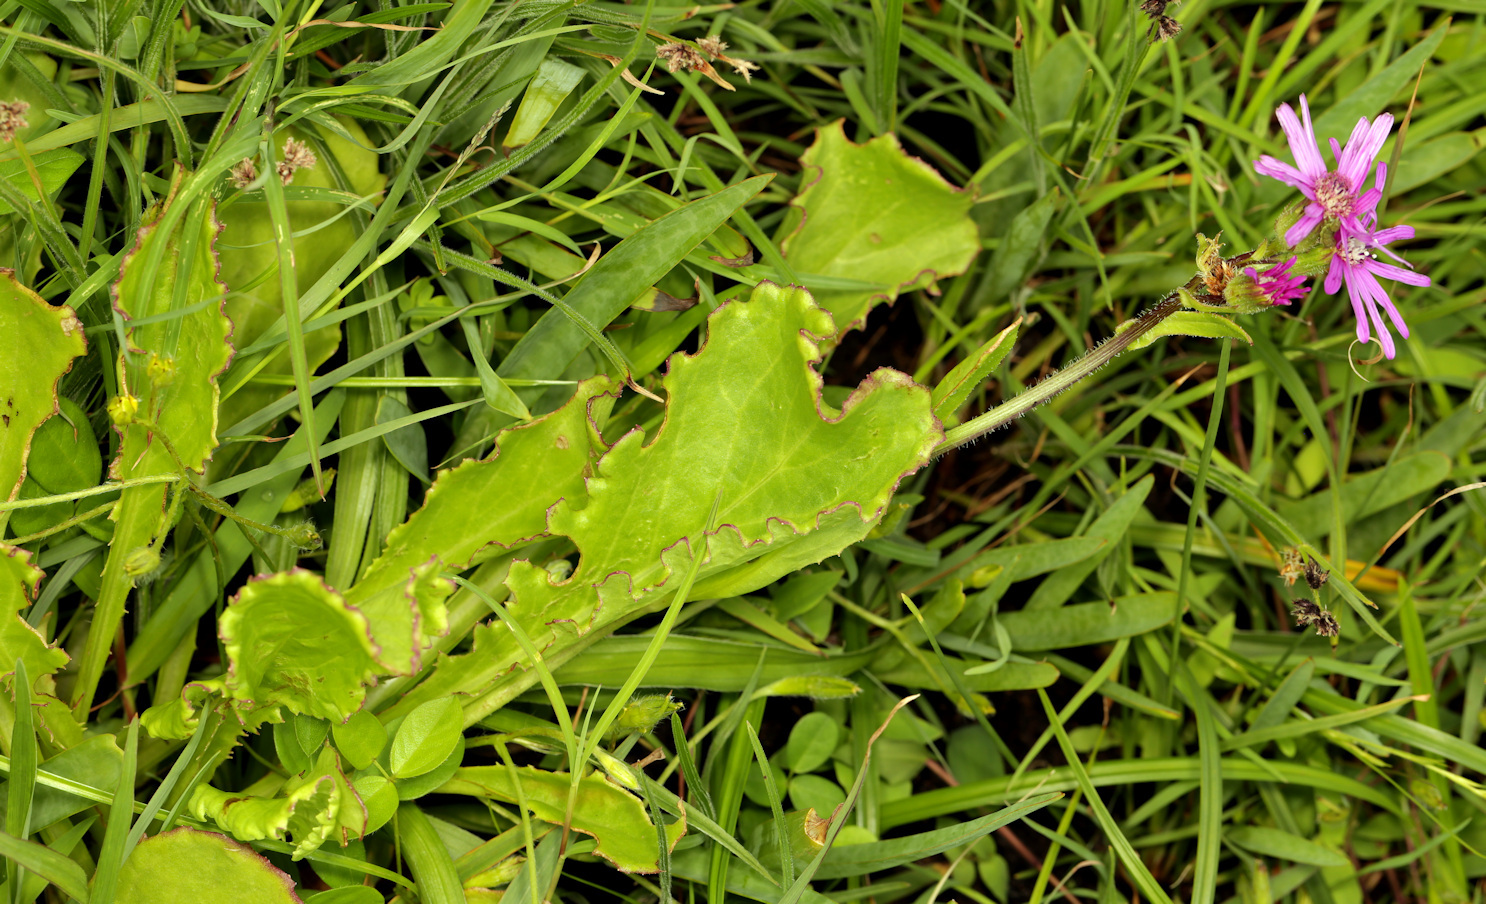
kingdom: Plantae
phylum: Tracheophyta
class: Magnoliopsida
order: Asterales
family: Asteraceae
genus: Senecio
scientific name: Senecio speciosus
